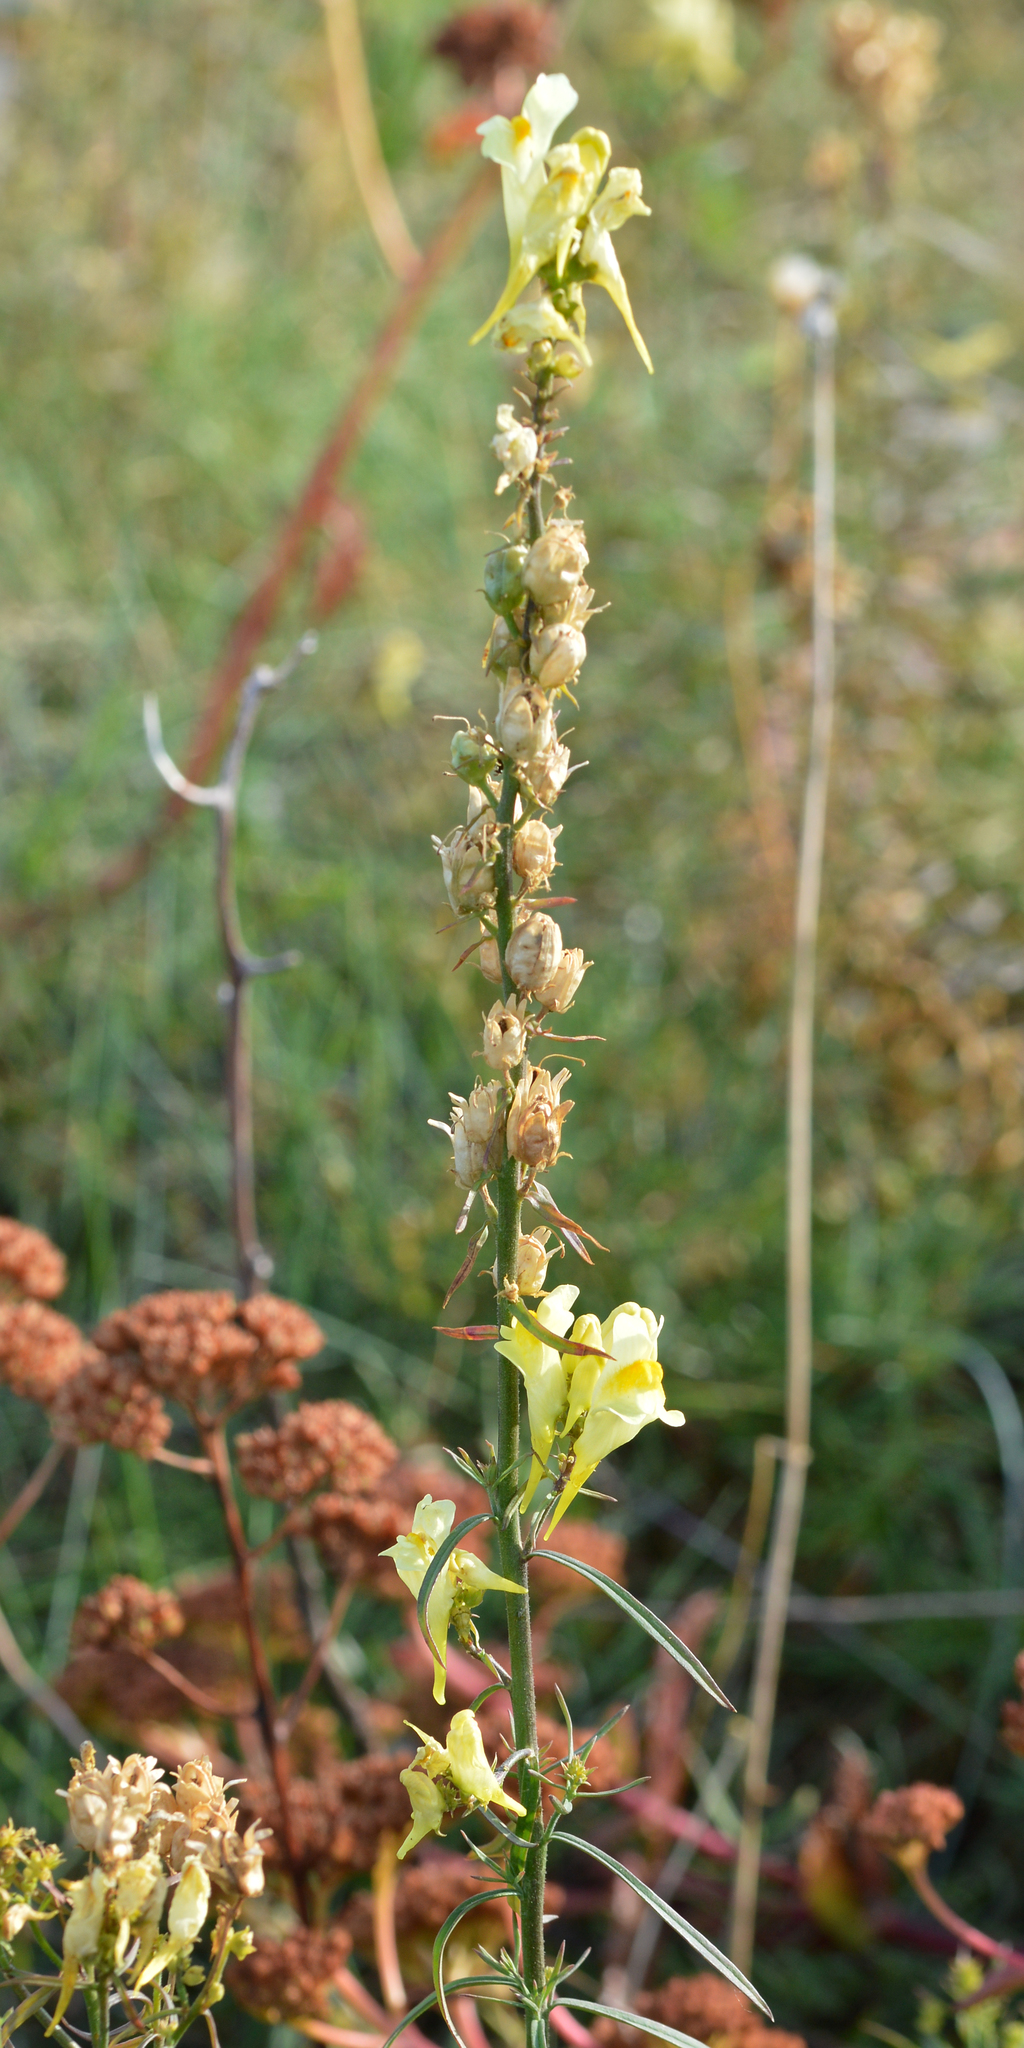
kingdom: Plantae
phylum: Tracheophyta
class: Magnoliopsida
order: Lamiales
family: Plantaginaceae
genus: Linaria
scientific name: Linaria vulgaris
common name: Butter and eggs
